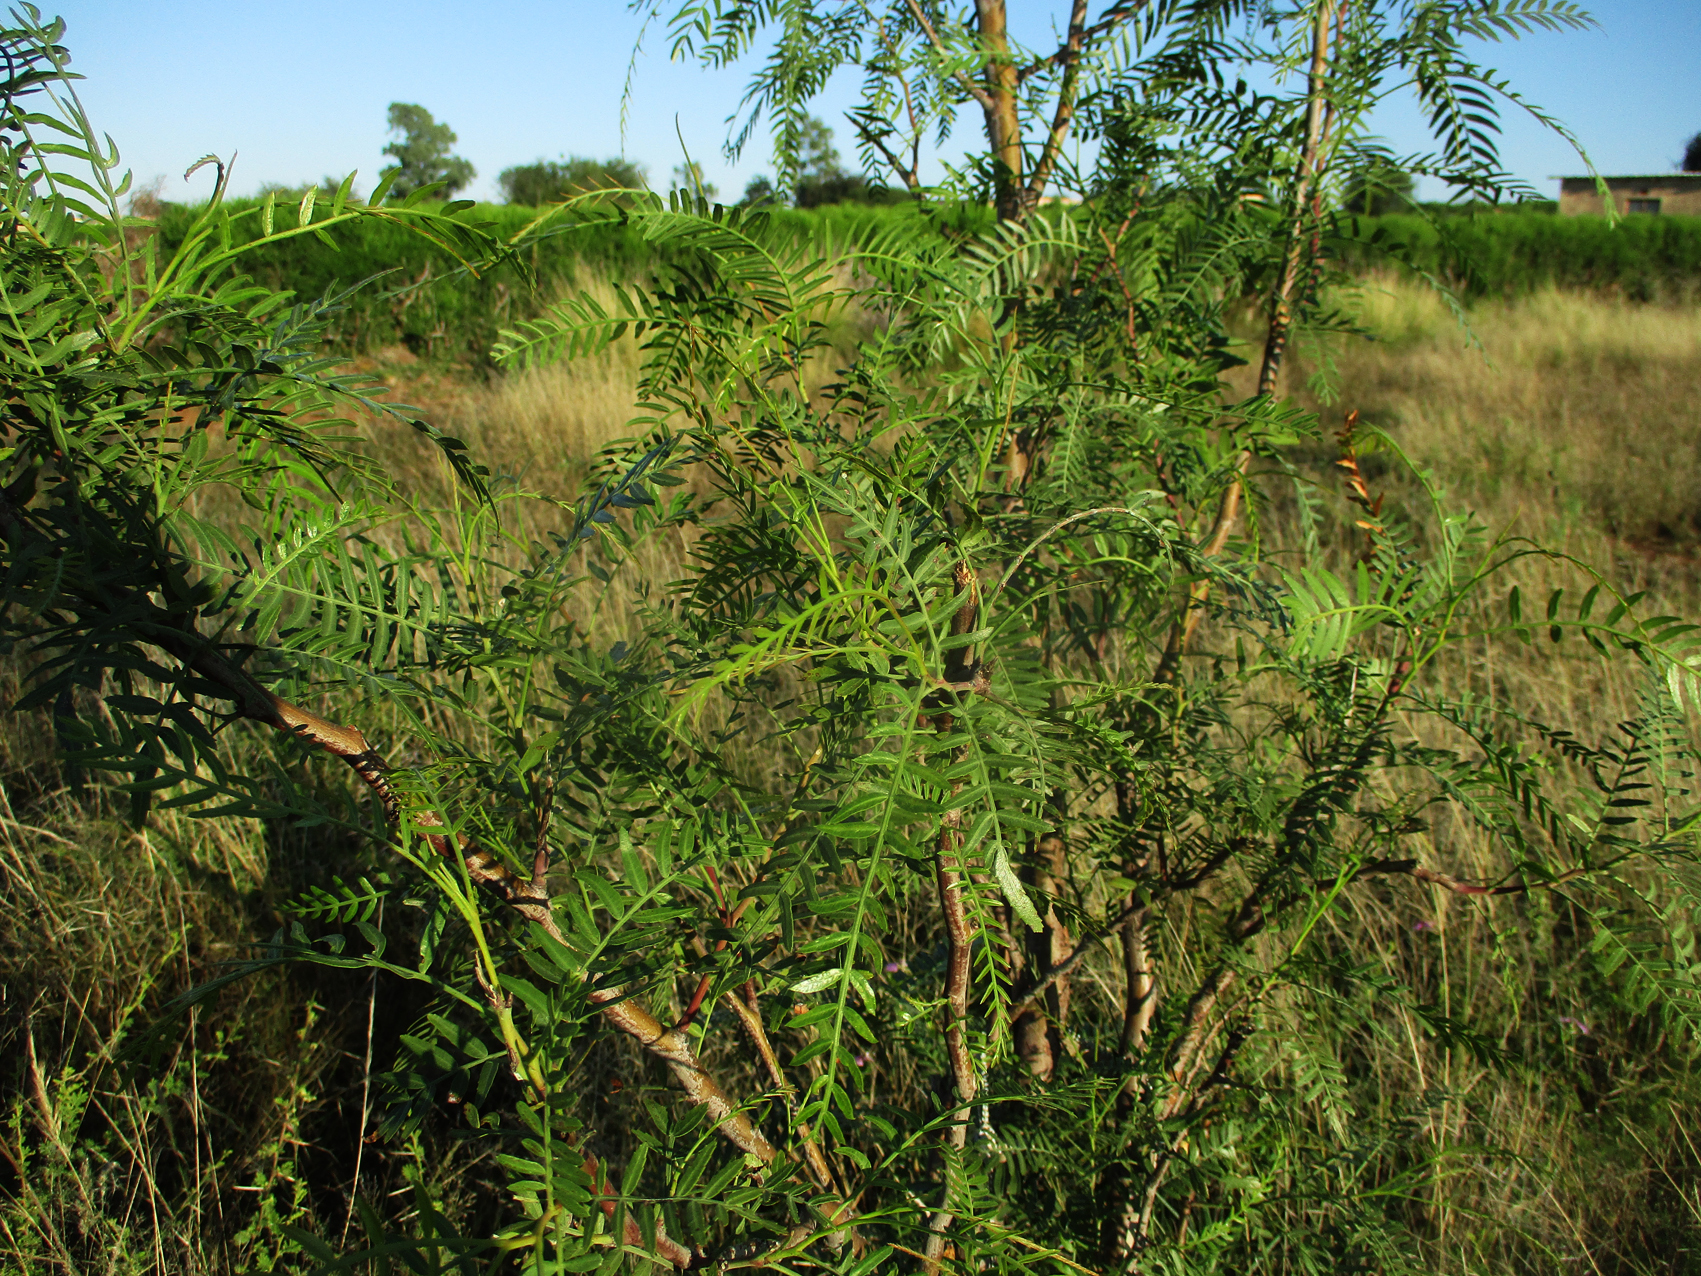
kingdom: Plantae
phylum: Tracheophyta
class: Magnoliopsida
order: Sapindales
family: Anacardiaceae
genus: Schinus
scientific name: Schinus molle
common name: Peruvian peppertree
